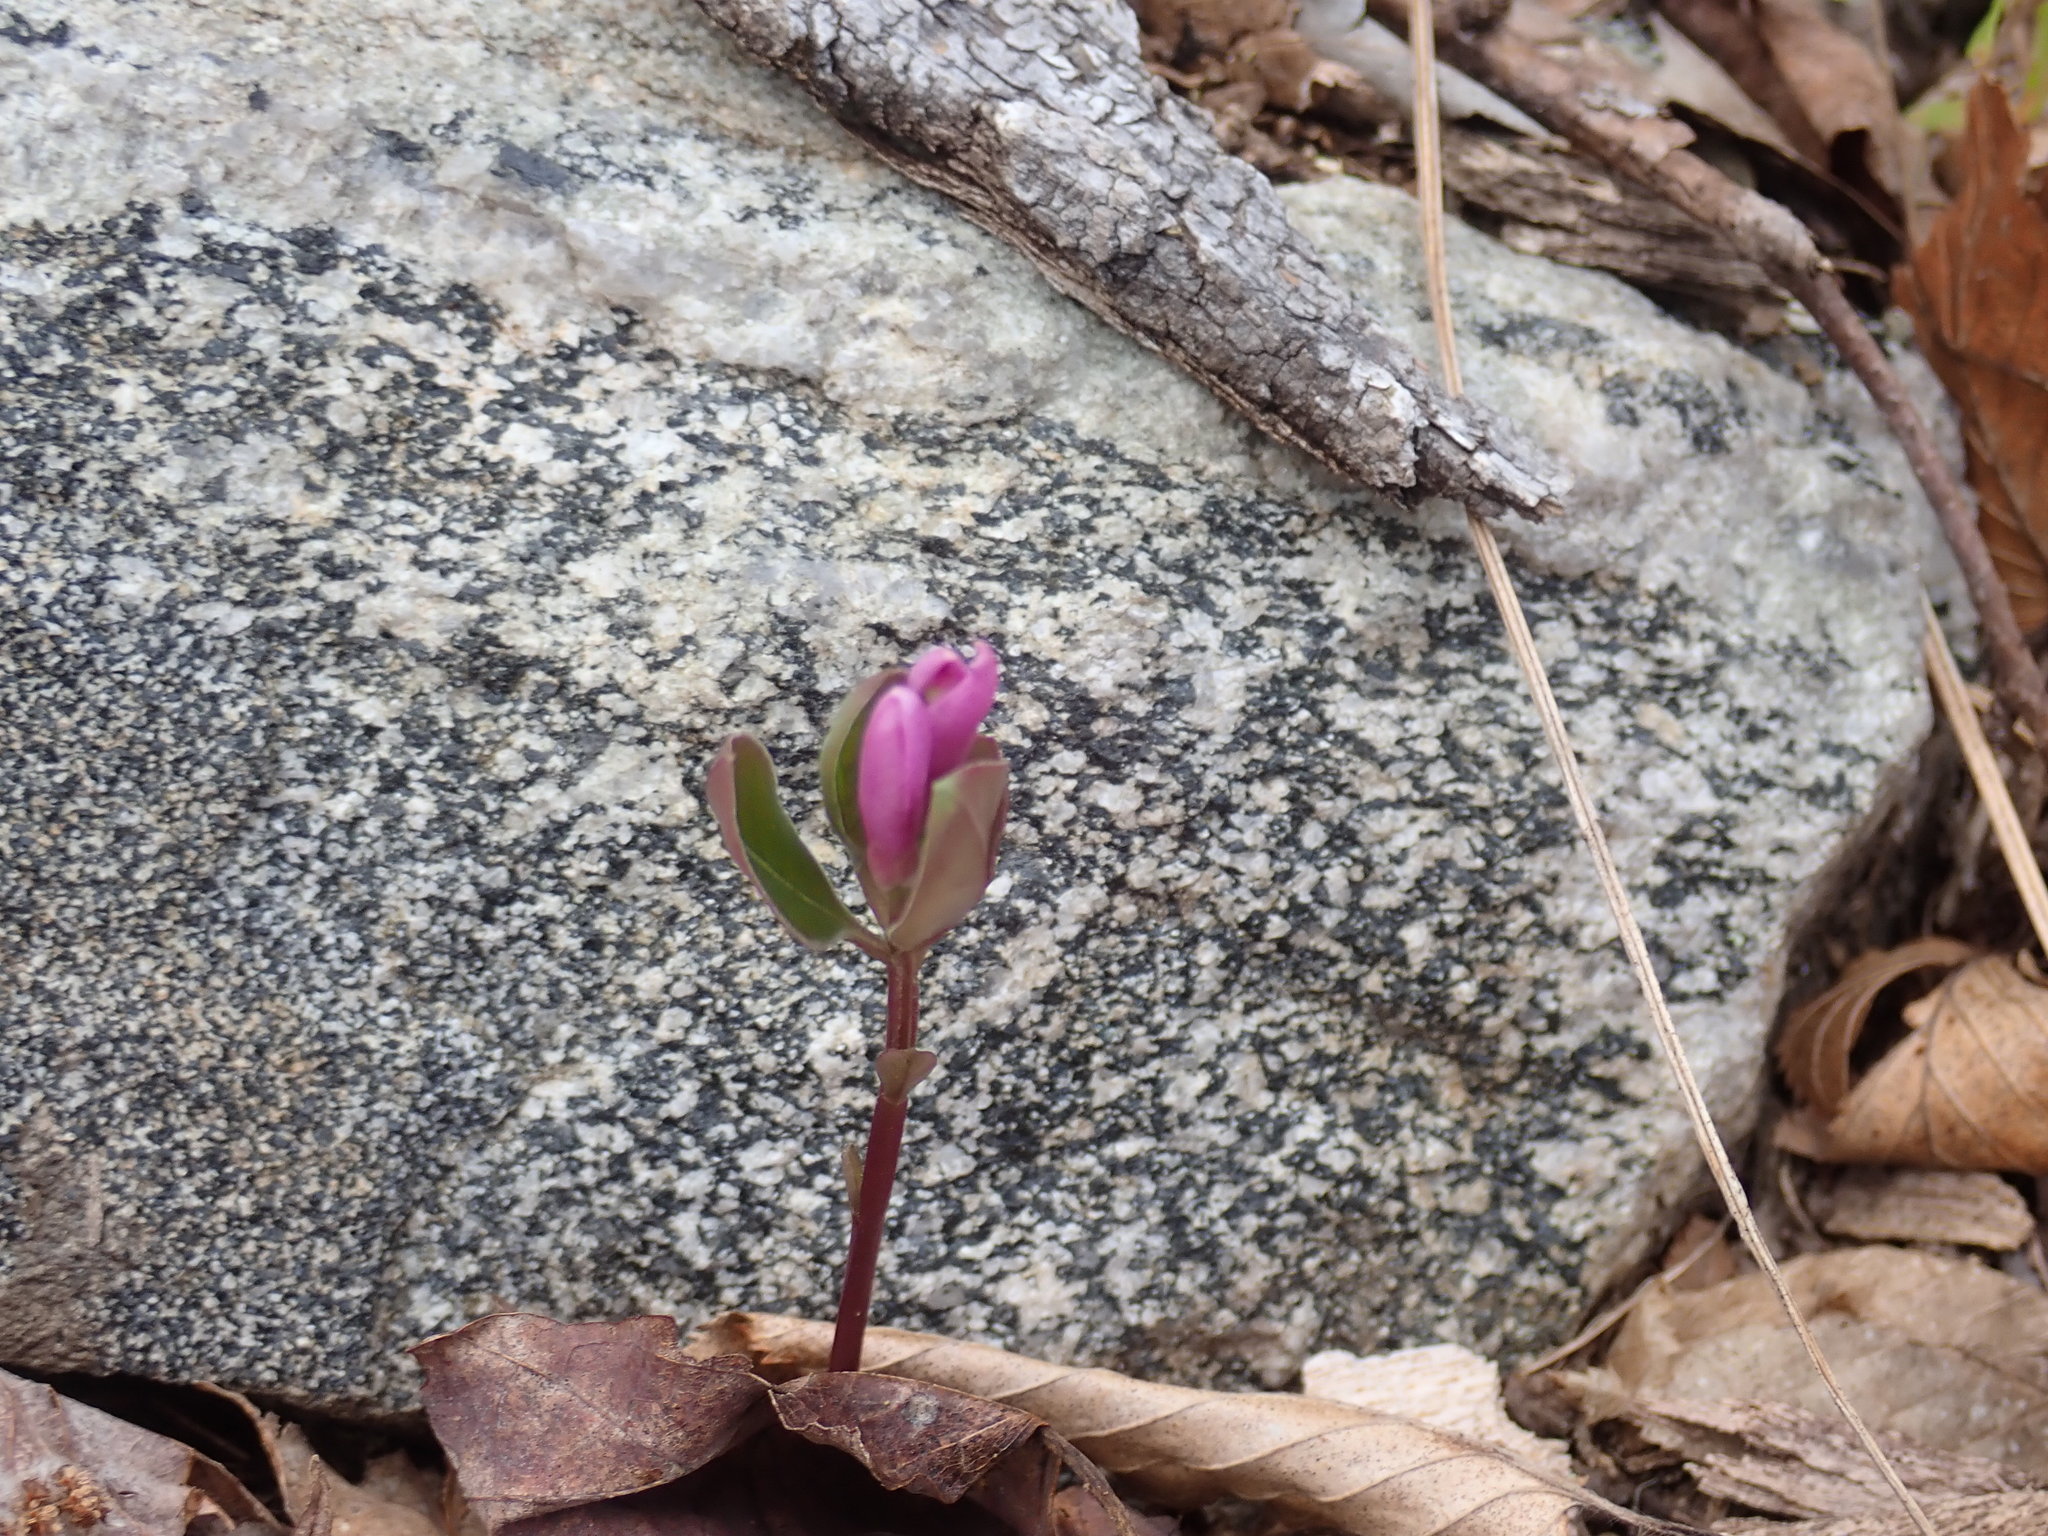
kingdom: Plantae
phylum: Tracheophyta
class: Magnoliopsida
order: Fabales
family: Polygalaceae
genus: Polygaloides
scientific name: Polygaloides paucifolia
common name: Bird-on-the-wing
